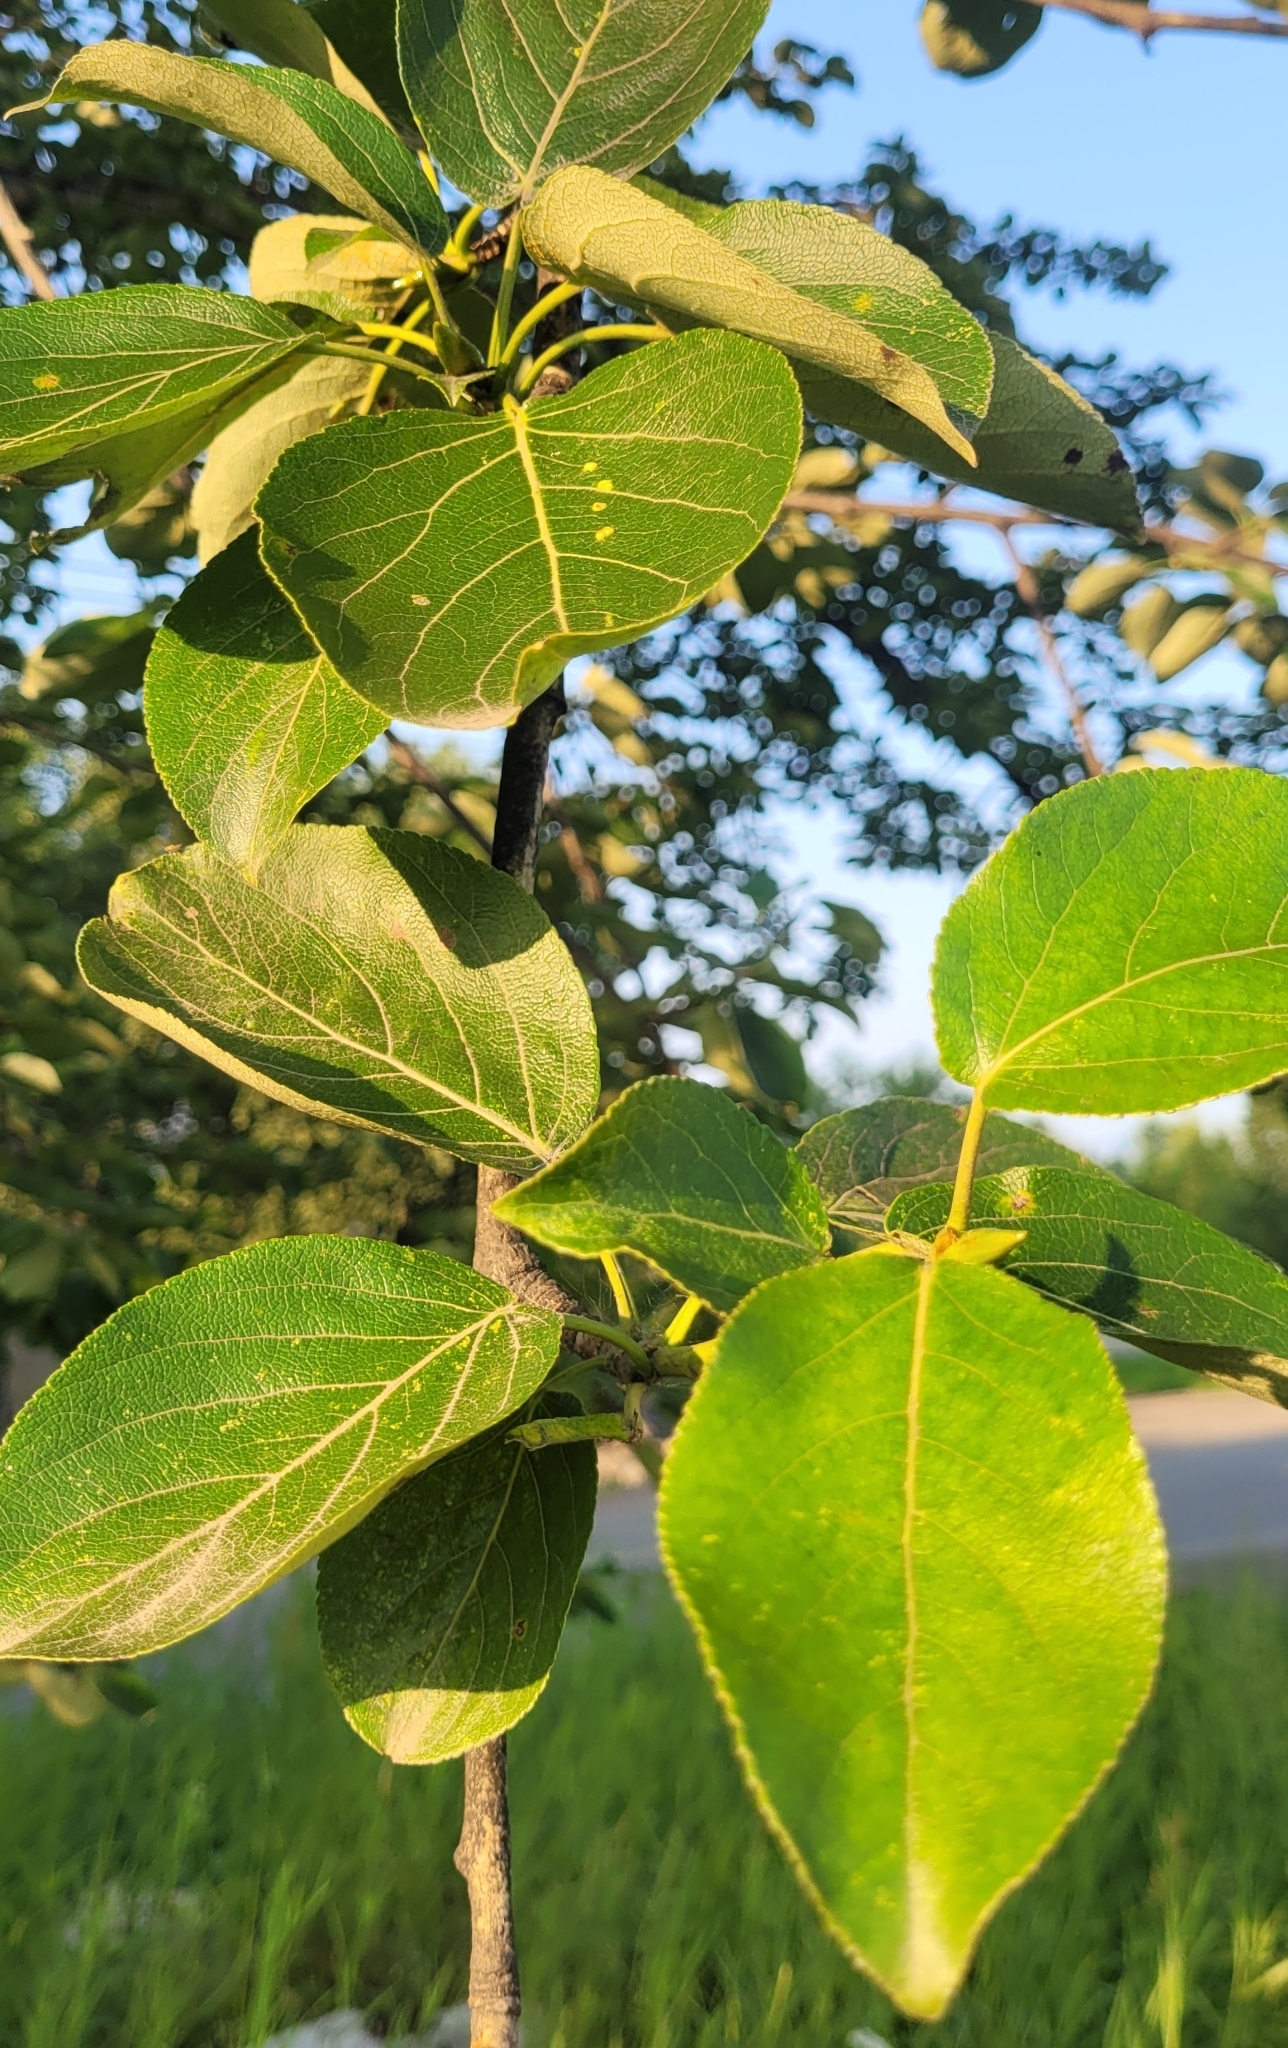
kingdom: Plantae
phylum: Tracheophyta
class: Magnoliopsida
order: Malpighiales
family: Salicaceae
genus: Populus
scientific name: Populus suaveolens
